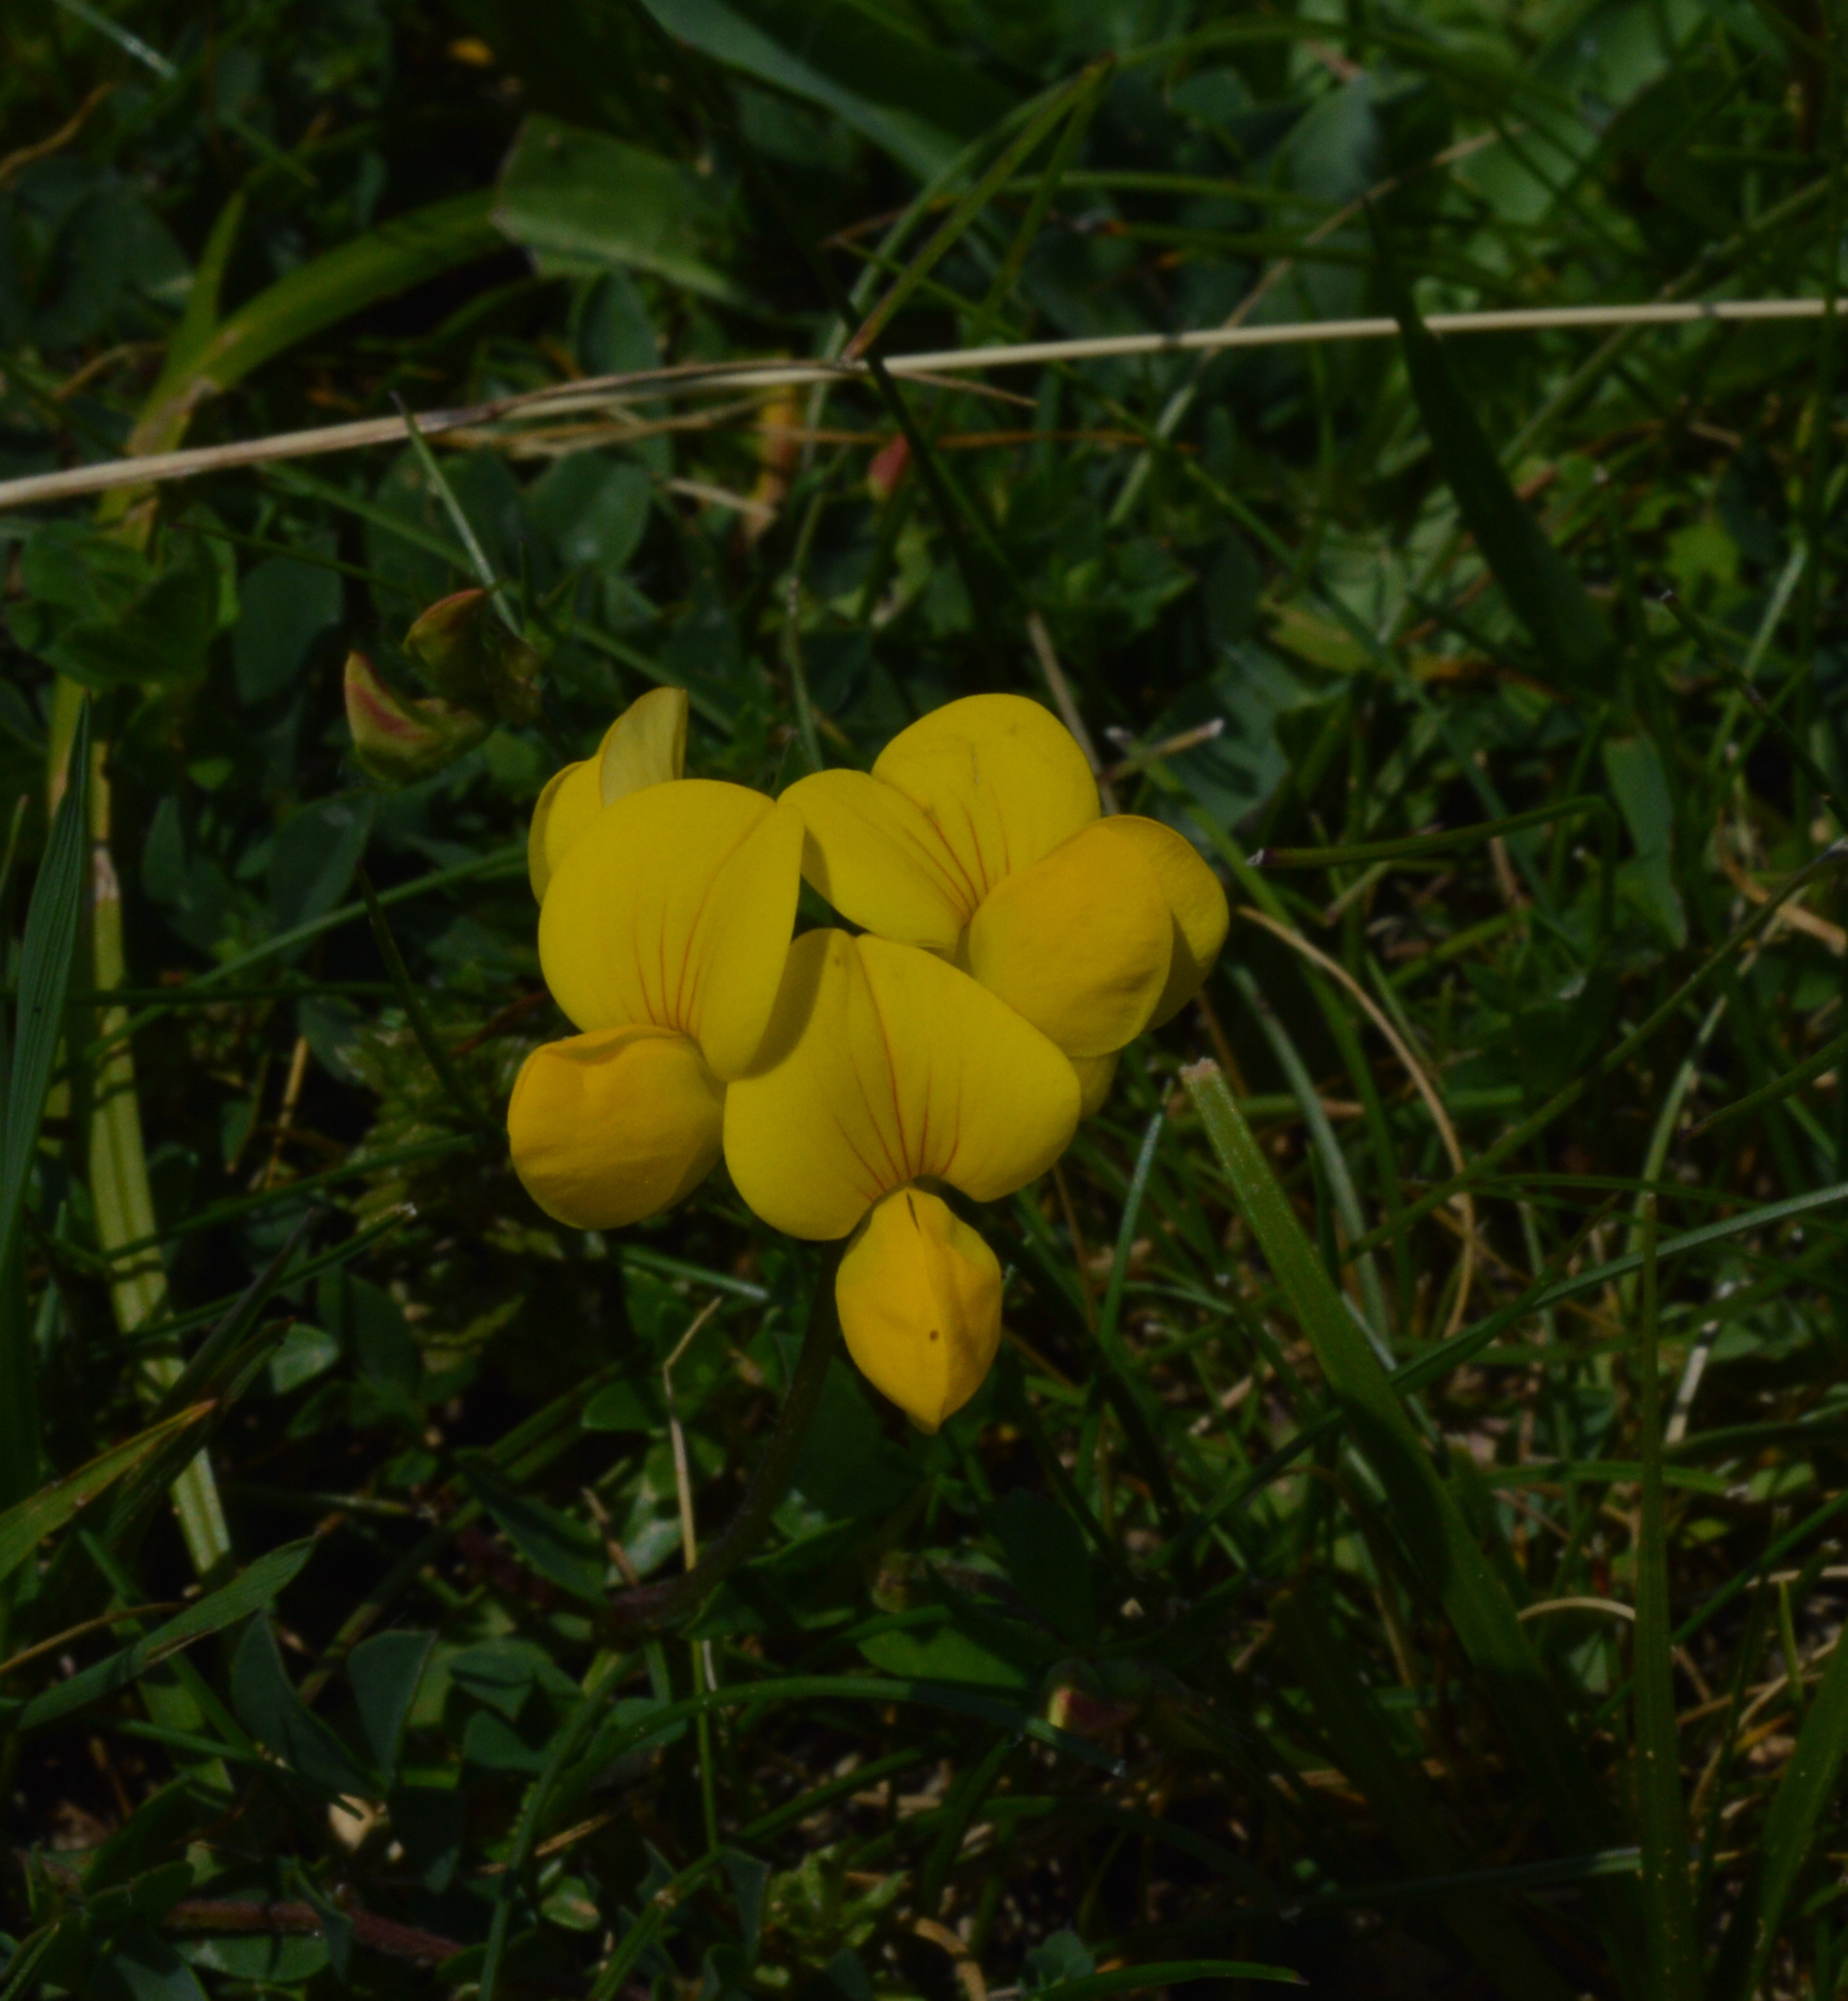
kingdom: Plantae
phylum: Tracheophyta
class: Magnoliopsida
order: Fabales
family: Fabaceae
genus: Lotus
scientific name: Lotus corniculatus
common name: Common bird's-foot-trefoil
